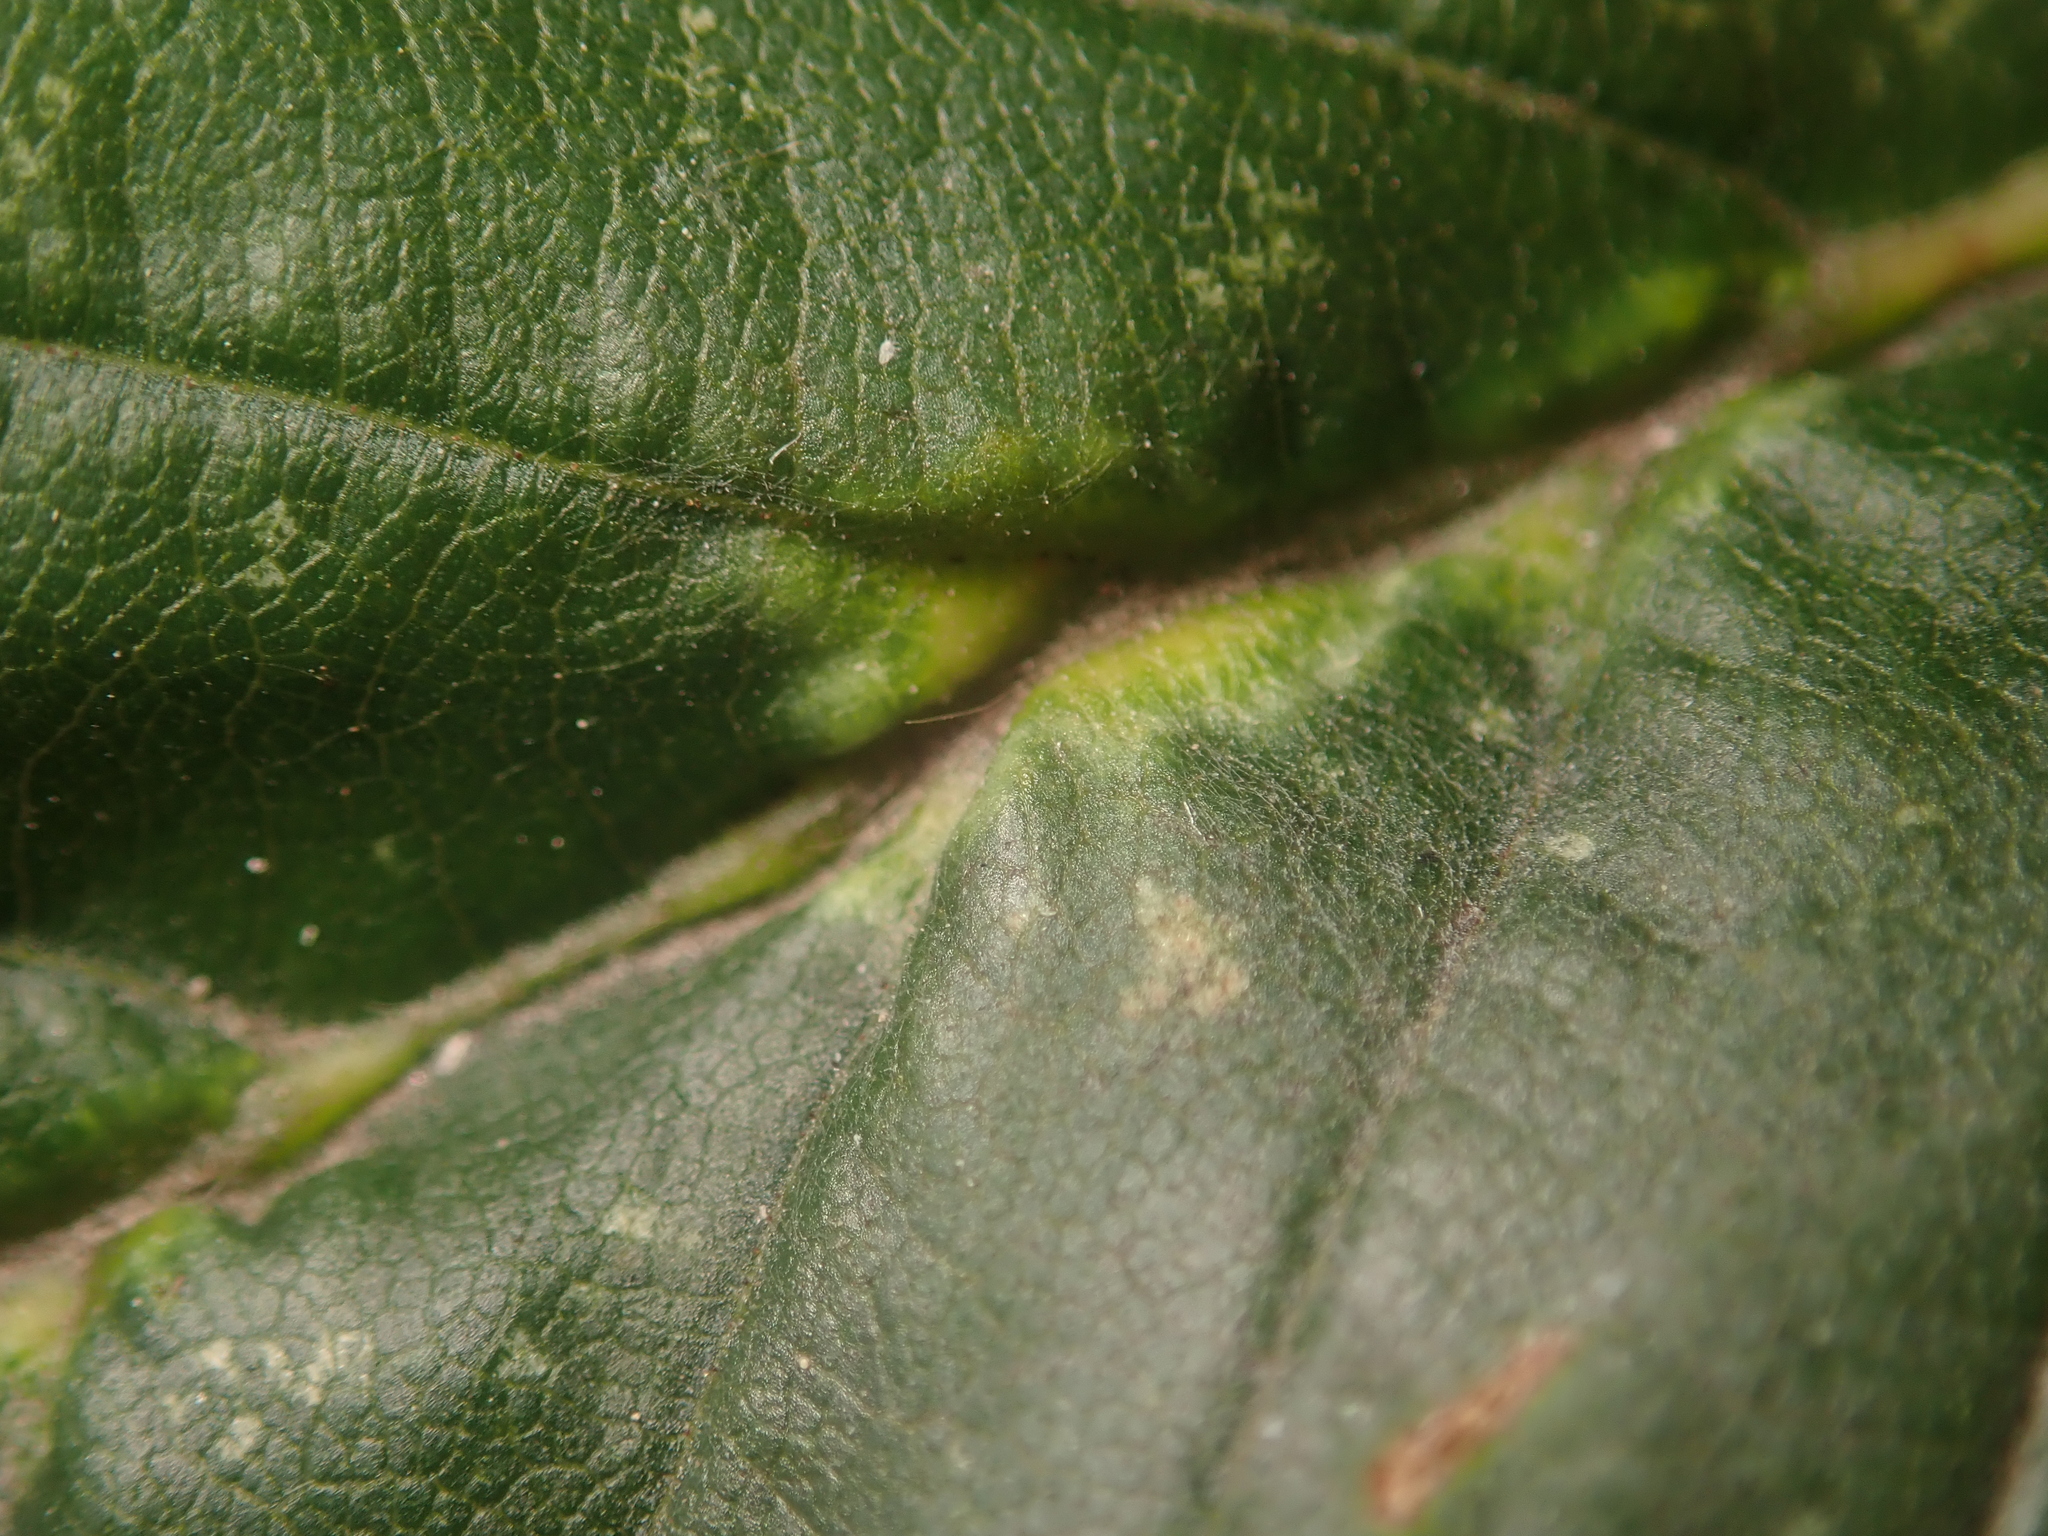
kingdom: Animalia
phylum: Arthropoda
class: Insecta
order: Diptera
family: Cecidomyiidae
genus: Zygiobia
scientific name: Zygiobia carpini
